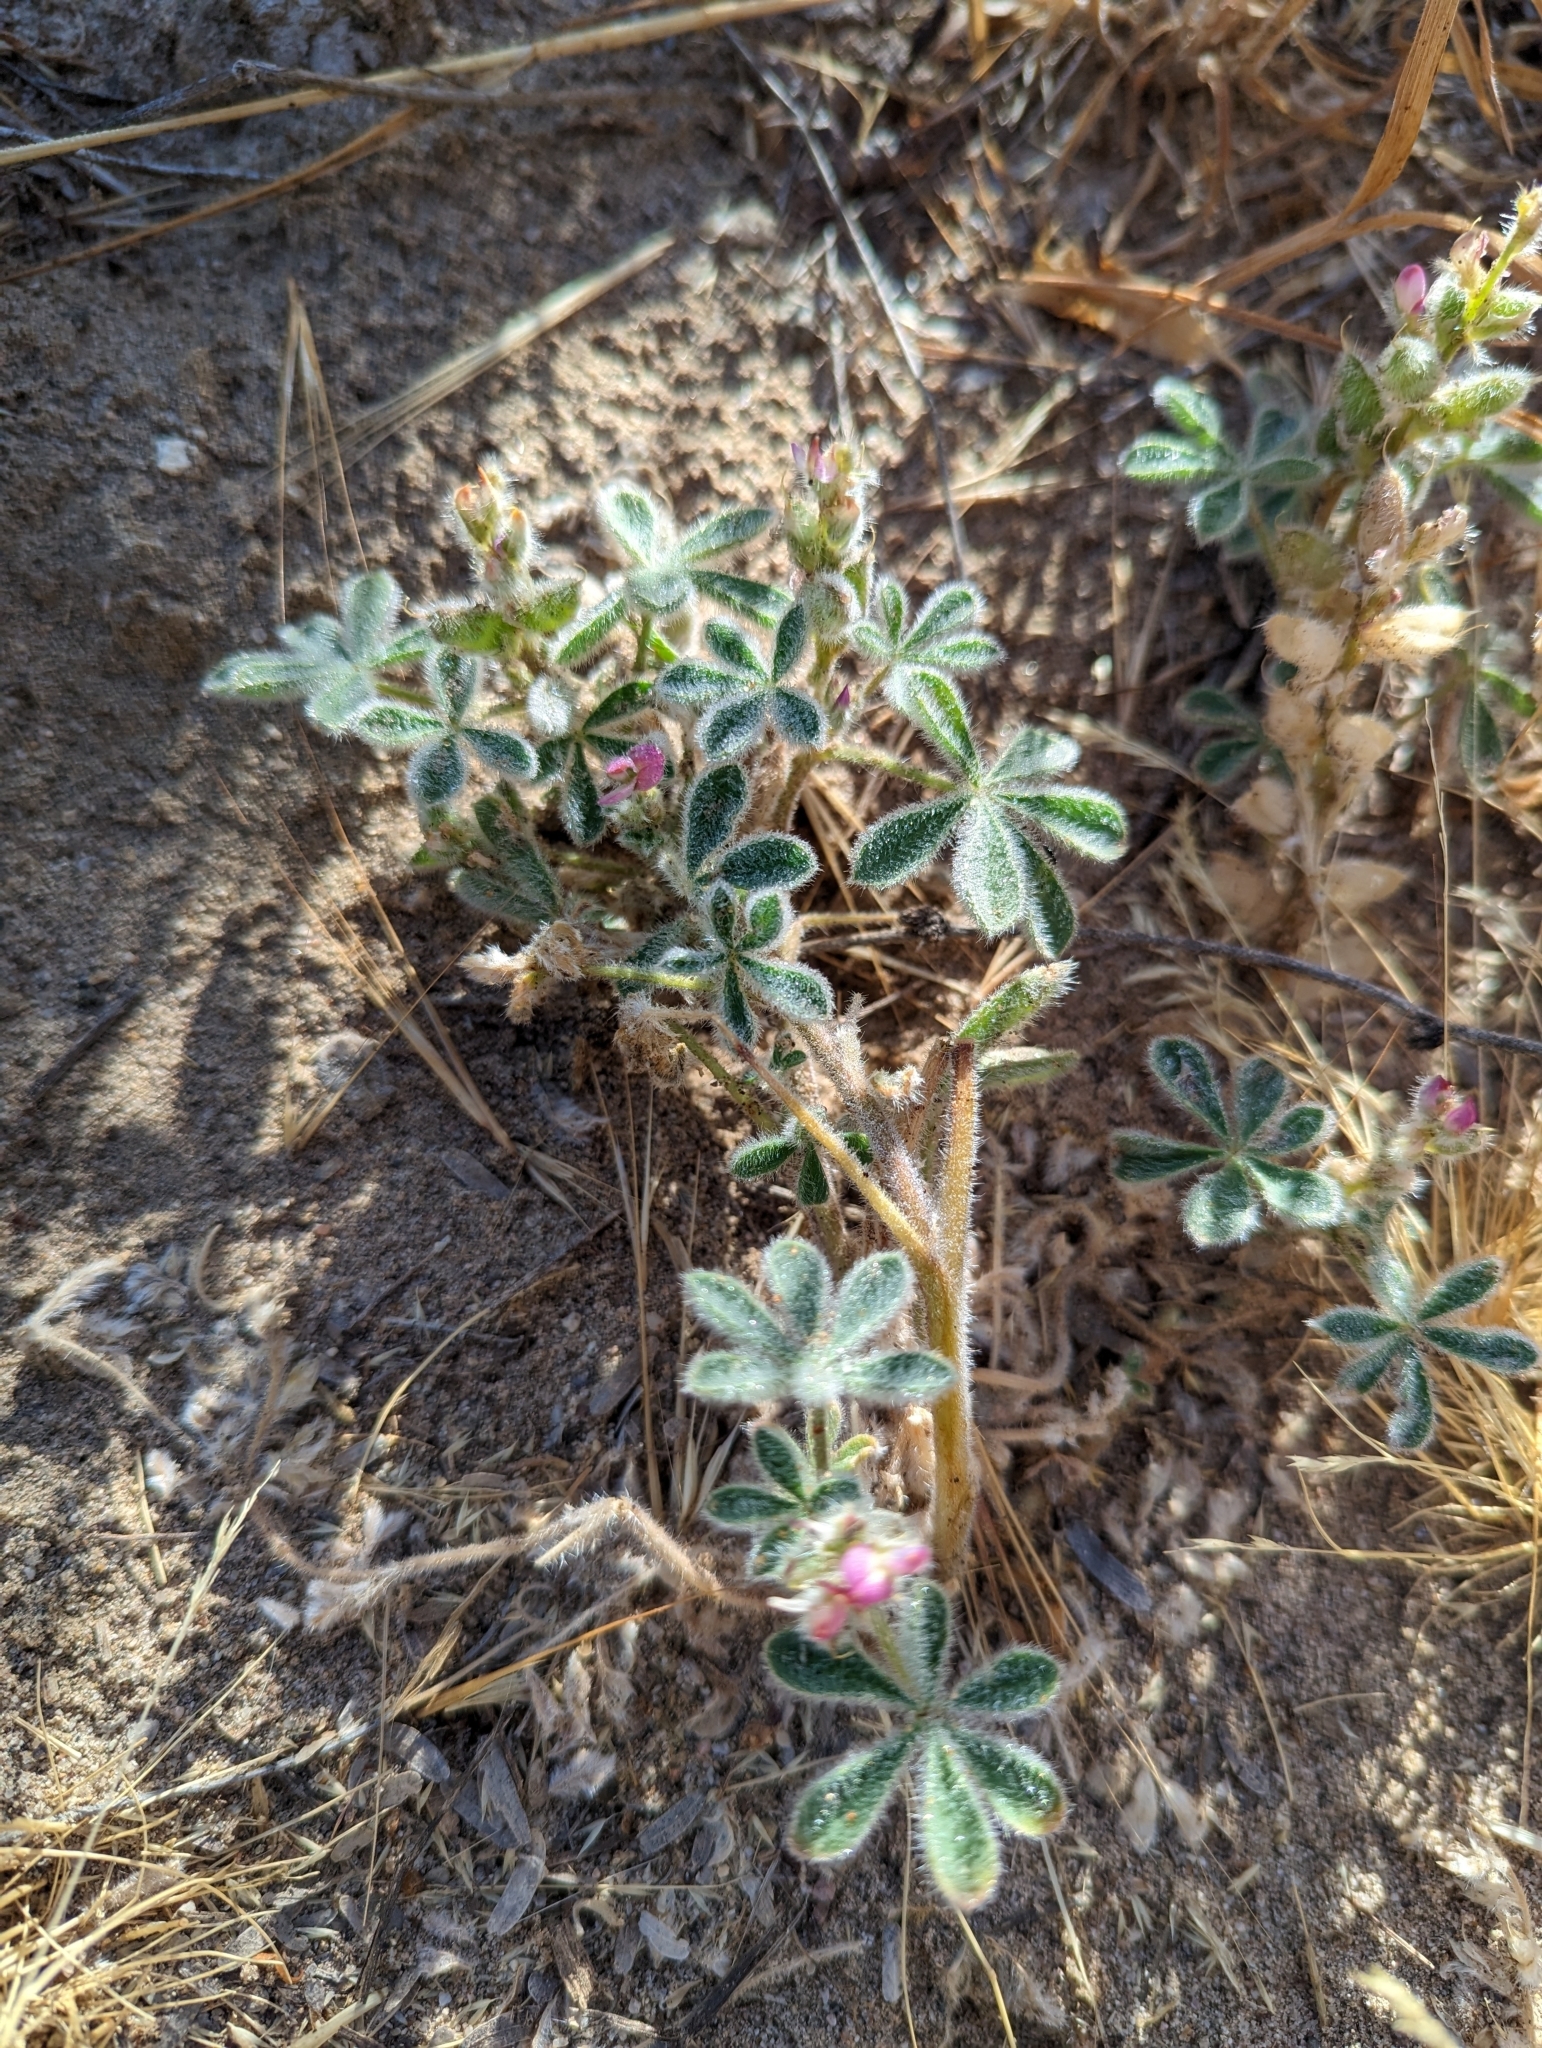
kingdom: Plantae
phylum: Tracheophyta
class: Magnoliopsida
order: Fabales
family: Fabaceae
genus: Lupinus
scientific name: Lupinus concinnus
